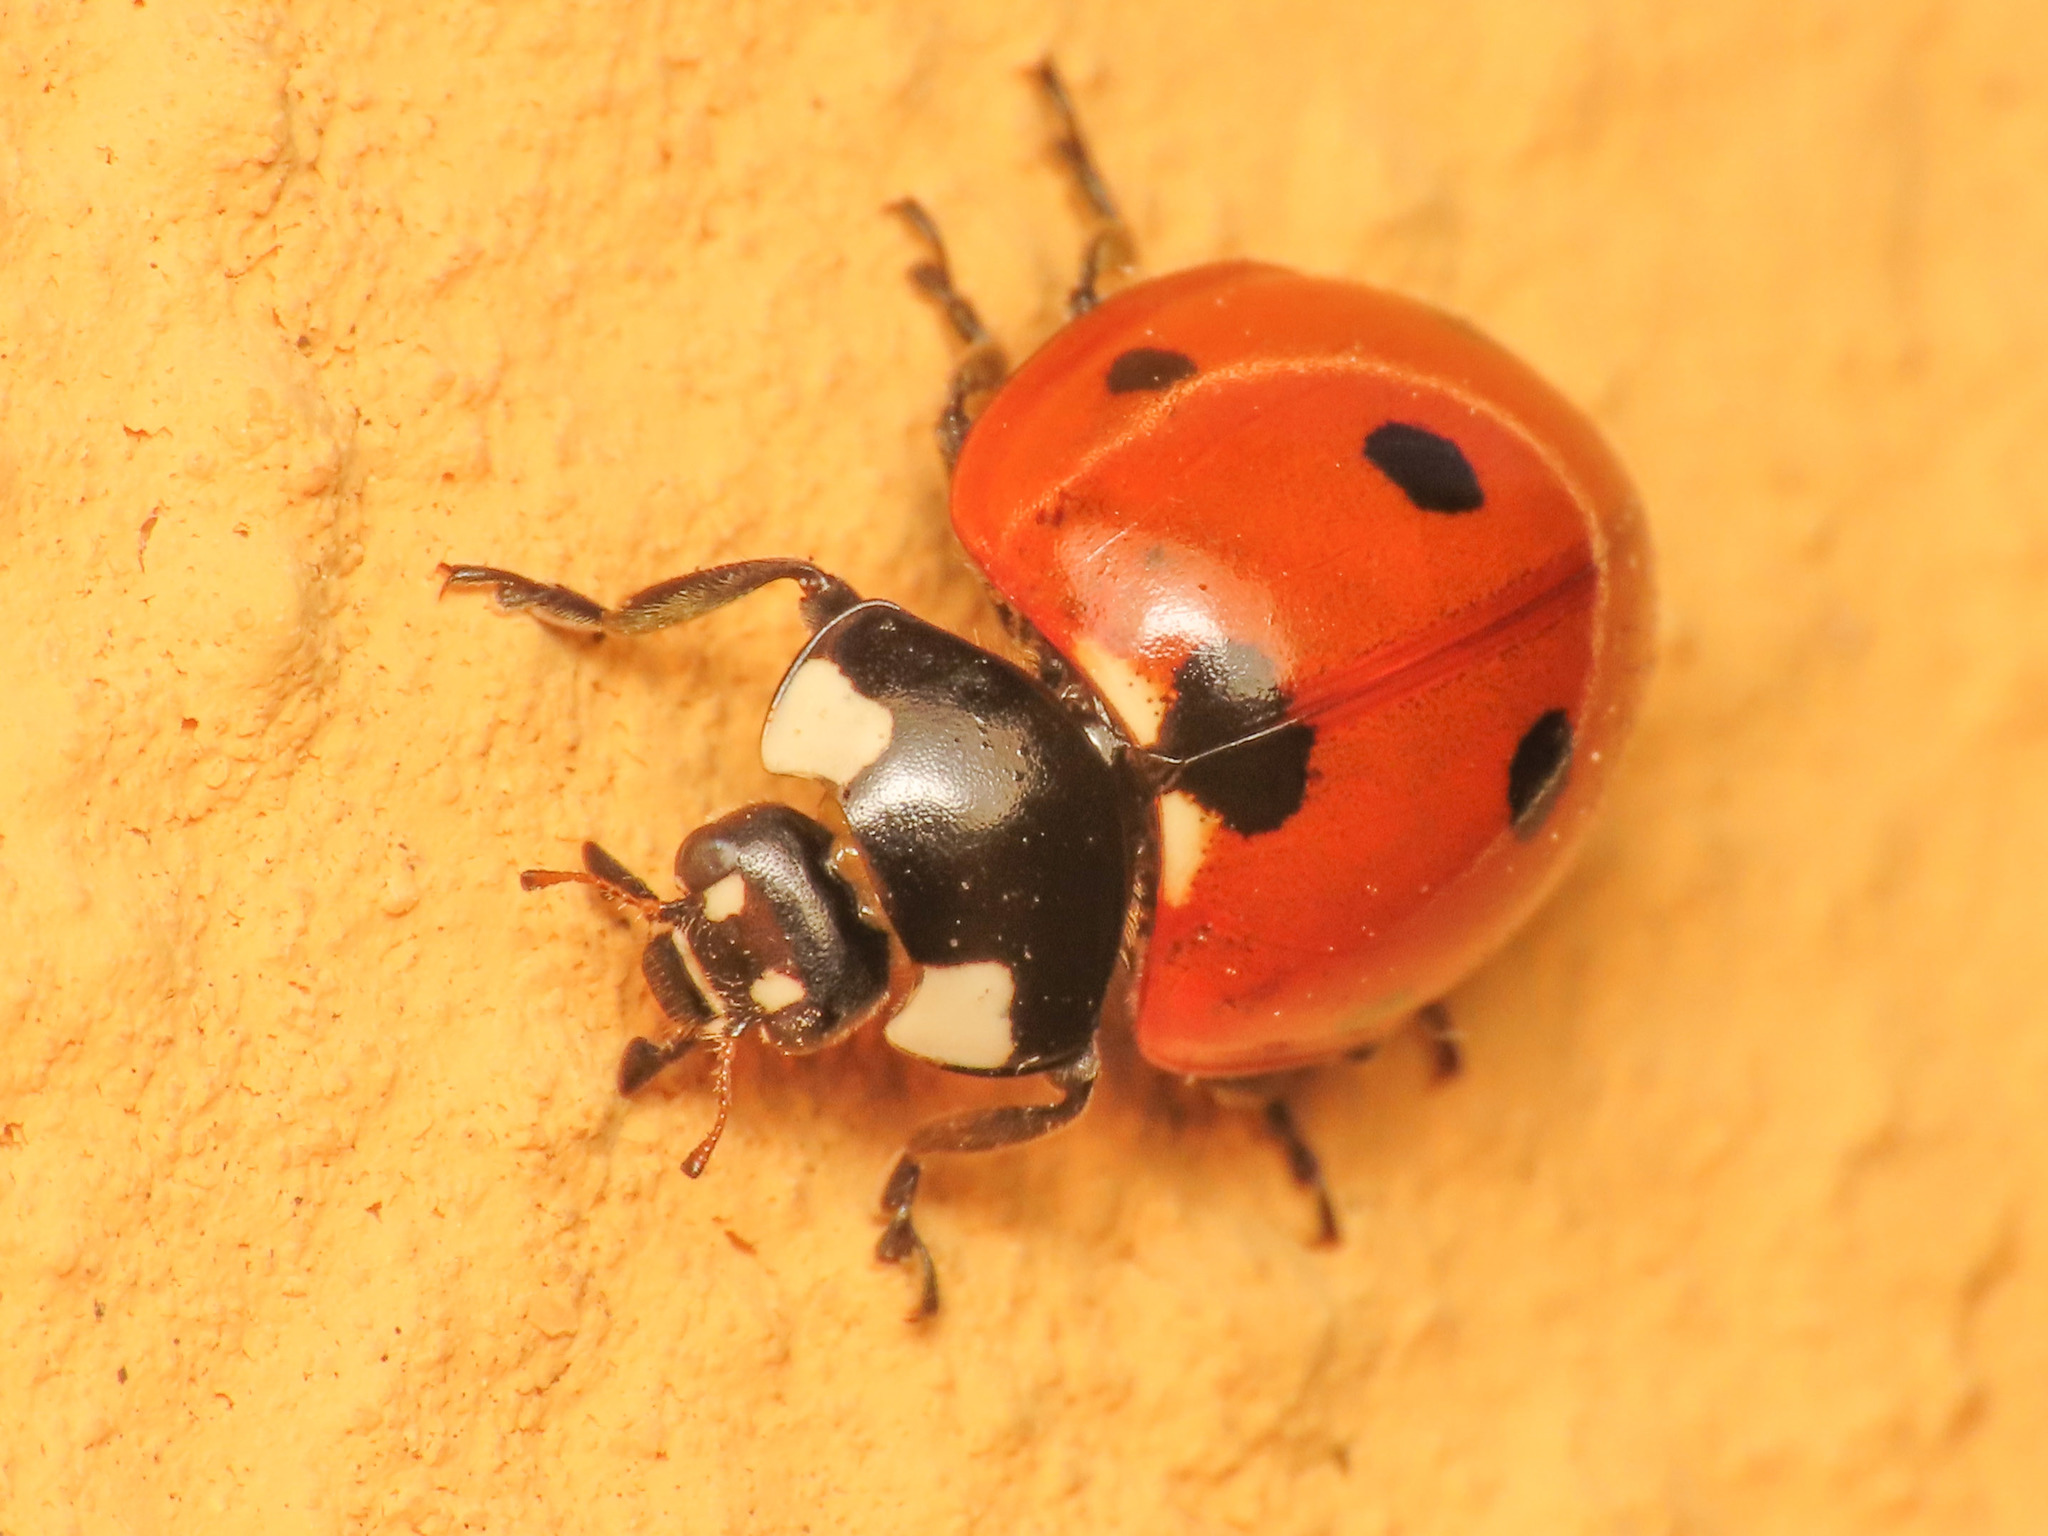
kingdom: Animalia
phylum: Arthropoda
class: Insecta
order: Coleoptera
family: Coccinellidae
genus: Coccinella
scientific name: Coccinella septempunctata
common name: Sevenspotted lady beetle
